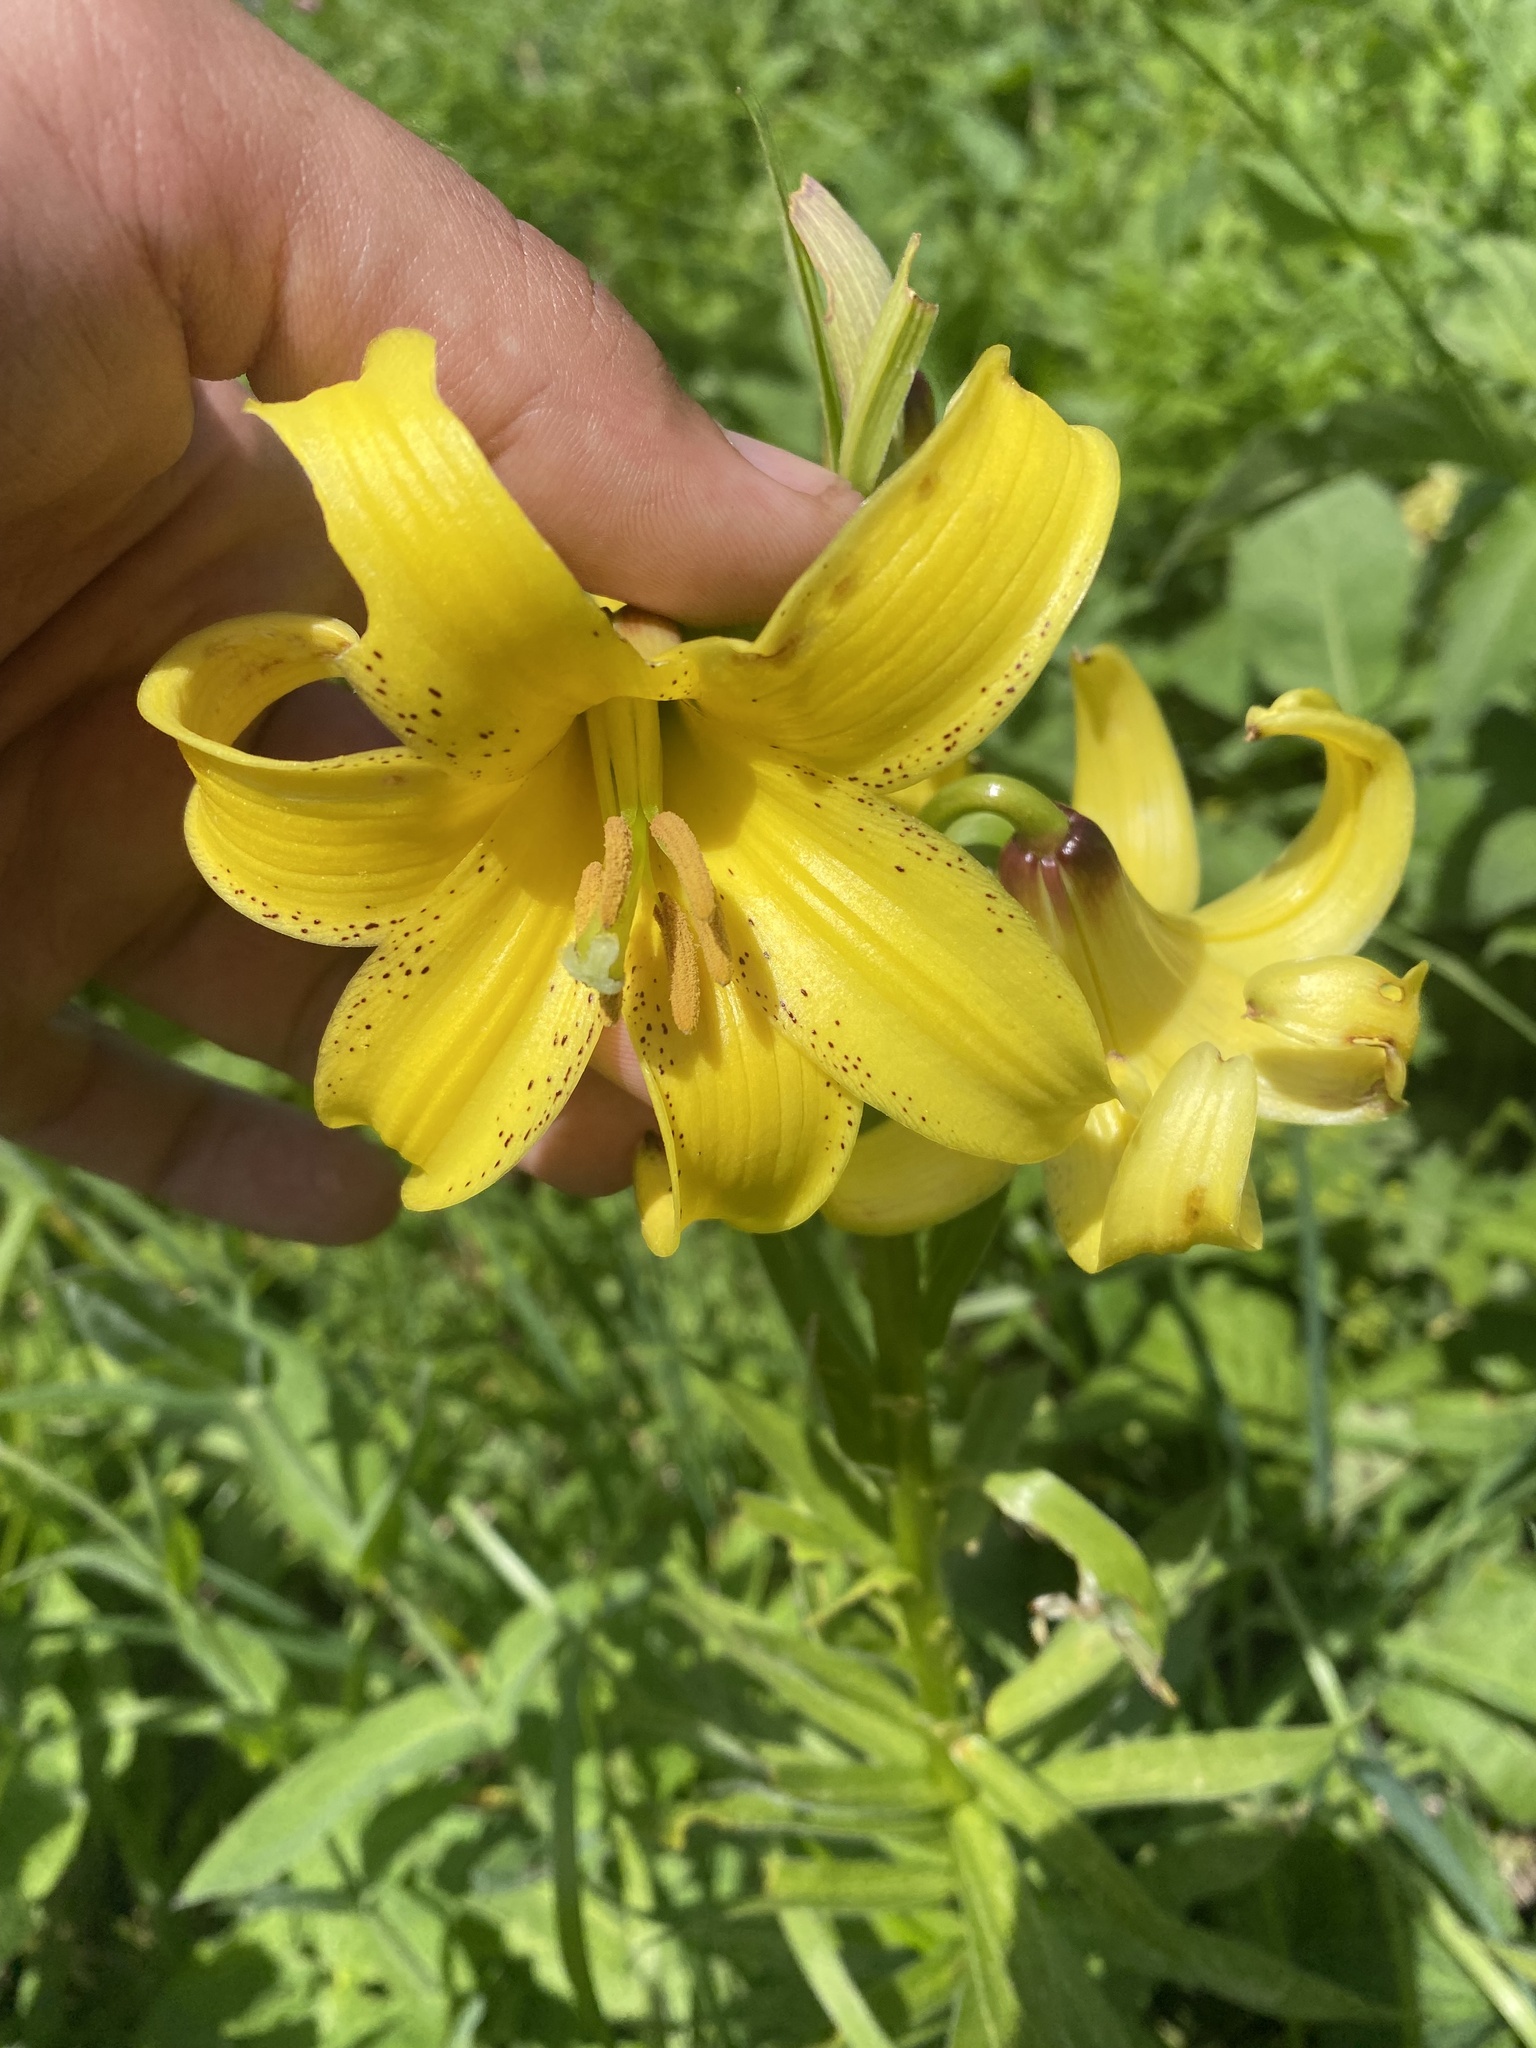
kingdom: Plantae
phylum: Tracheophyta
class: Liliopsida
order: Liliales
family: Liliaceae
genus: Lilium
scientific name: Lilium monadelphum
